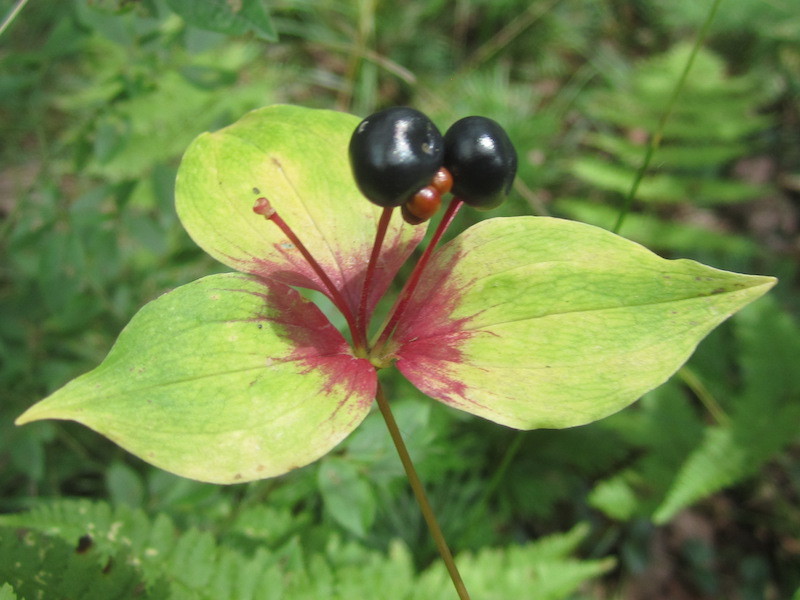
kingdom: Plantae
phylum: Tracheophyta
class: Liliopsida
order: Liliales
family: Liliaceae
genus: Medeola
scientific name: Medeola virginiana
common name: Indian cucumber-root
